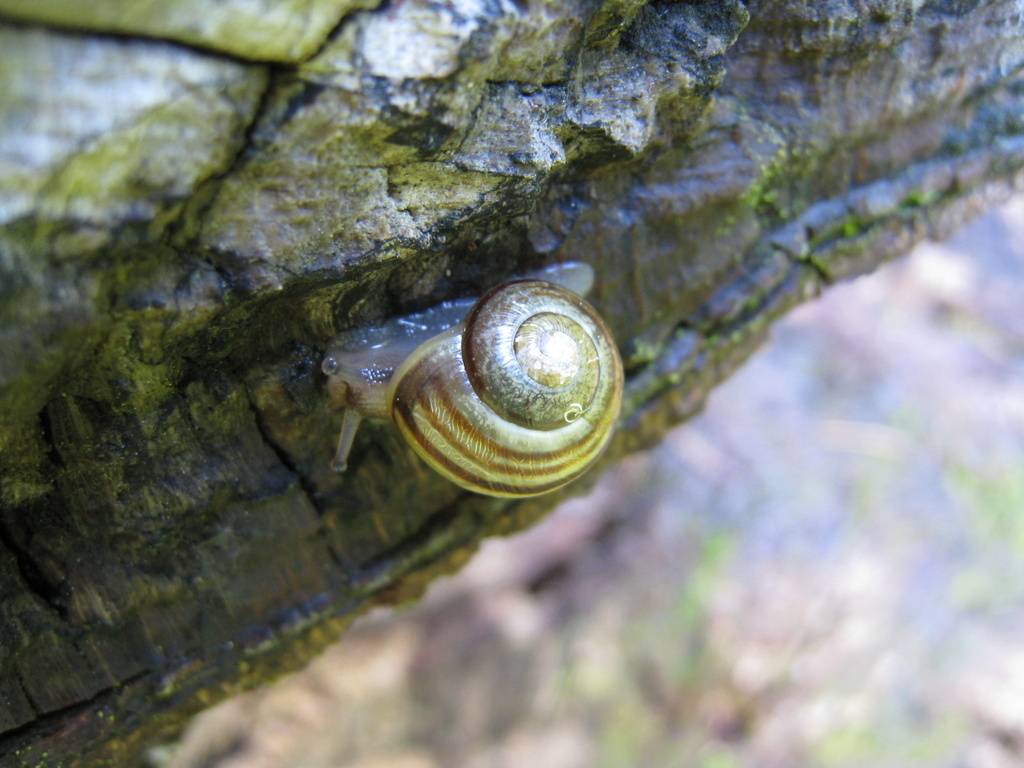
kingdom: Animalia
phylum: Mollusca
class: Gastropoda
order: Stylommatophora
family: Helicidae
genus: Cepaea
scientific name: Cepaea
